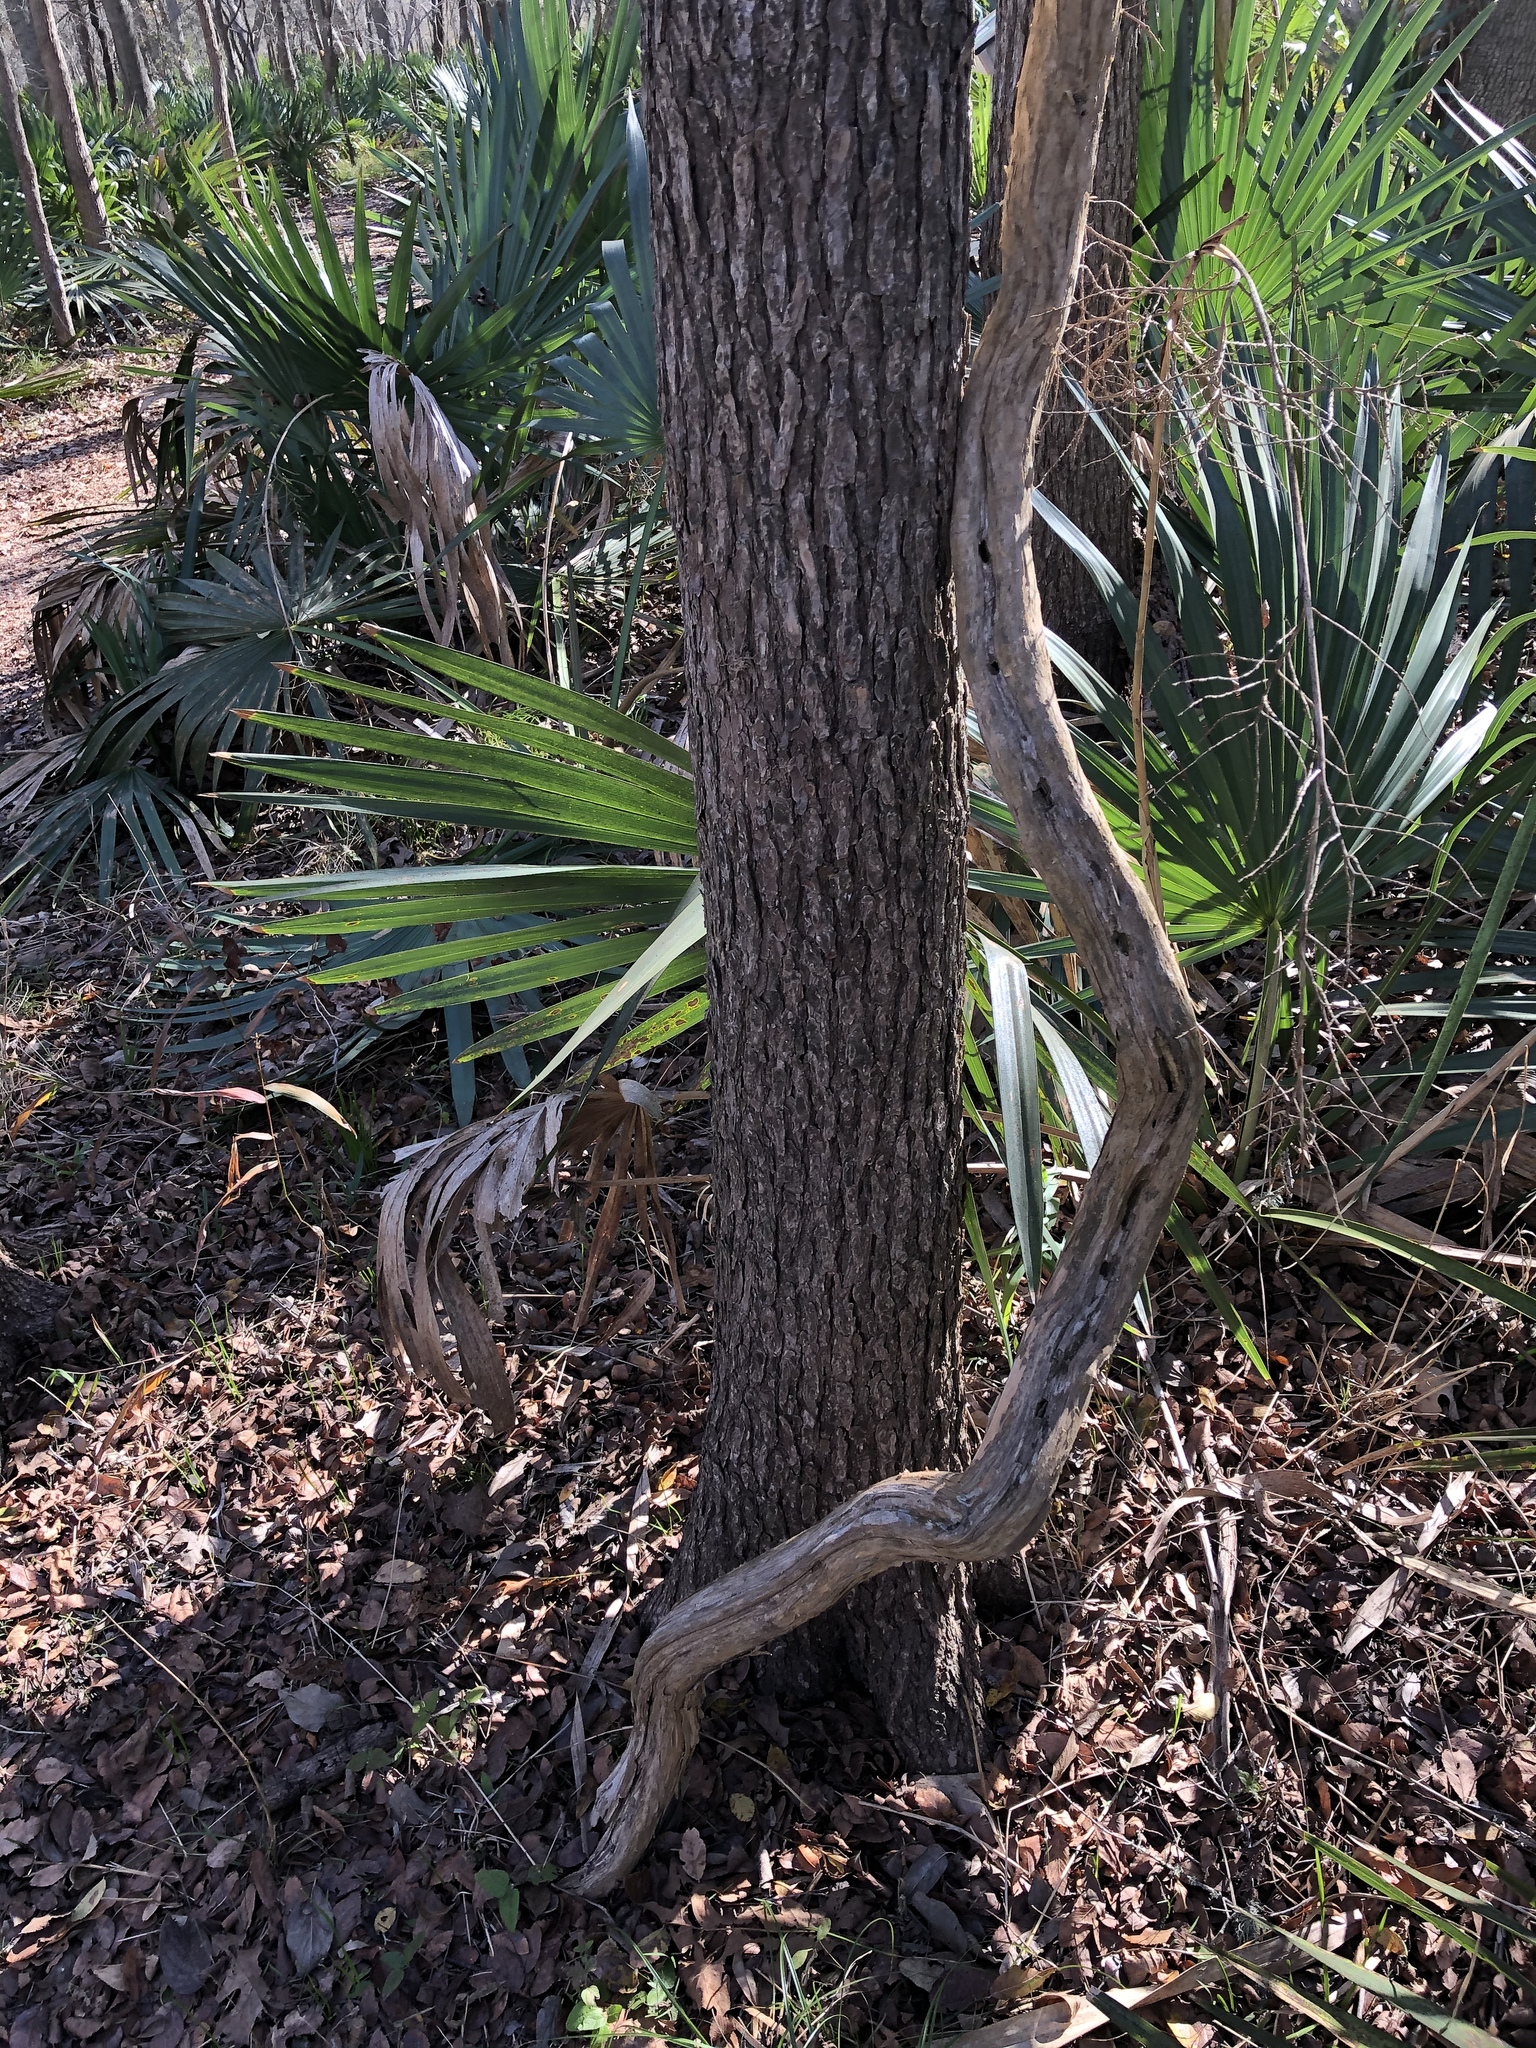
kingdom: Plantae
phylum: Tracheophyta
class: Magnoliopsida
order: Rosales
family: Rhamnaceae
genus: Berchemia
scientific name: Berchemia scandens
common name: Supplejack
